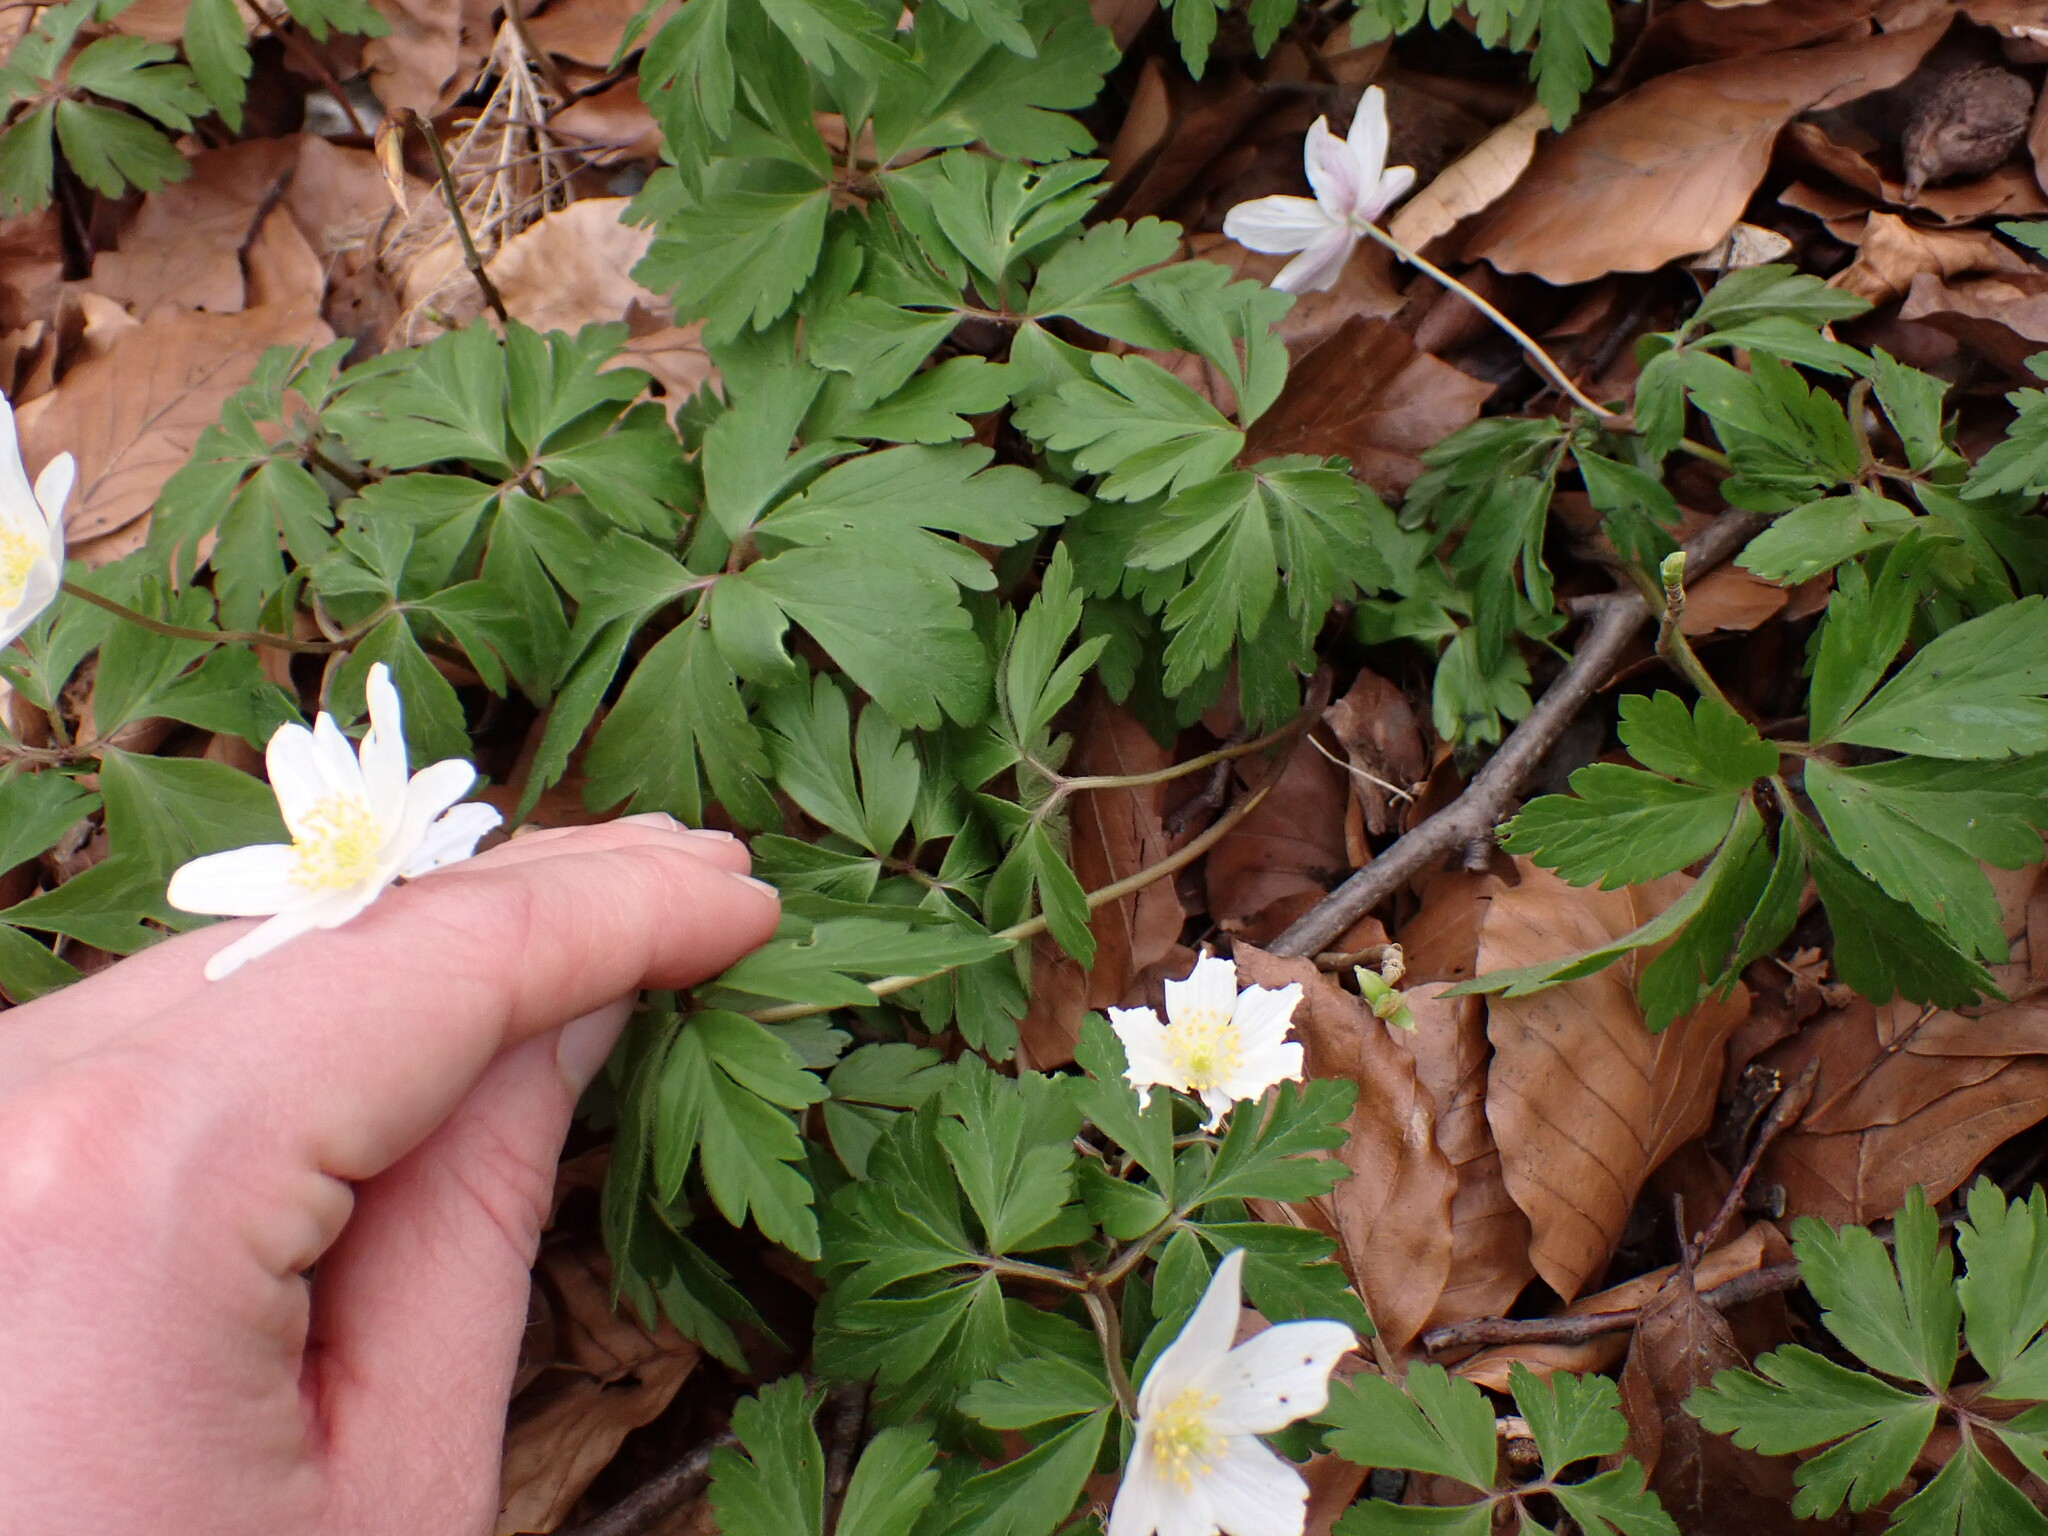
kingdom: Plantae
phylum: Tracheophyta
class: Magnoliopsida
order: Ranunculales
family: Ranunculaceae
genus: Anemone
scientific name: Anemone nemorosa
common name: Wood anemone
